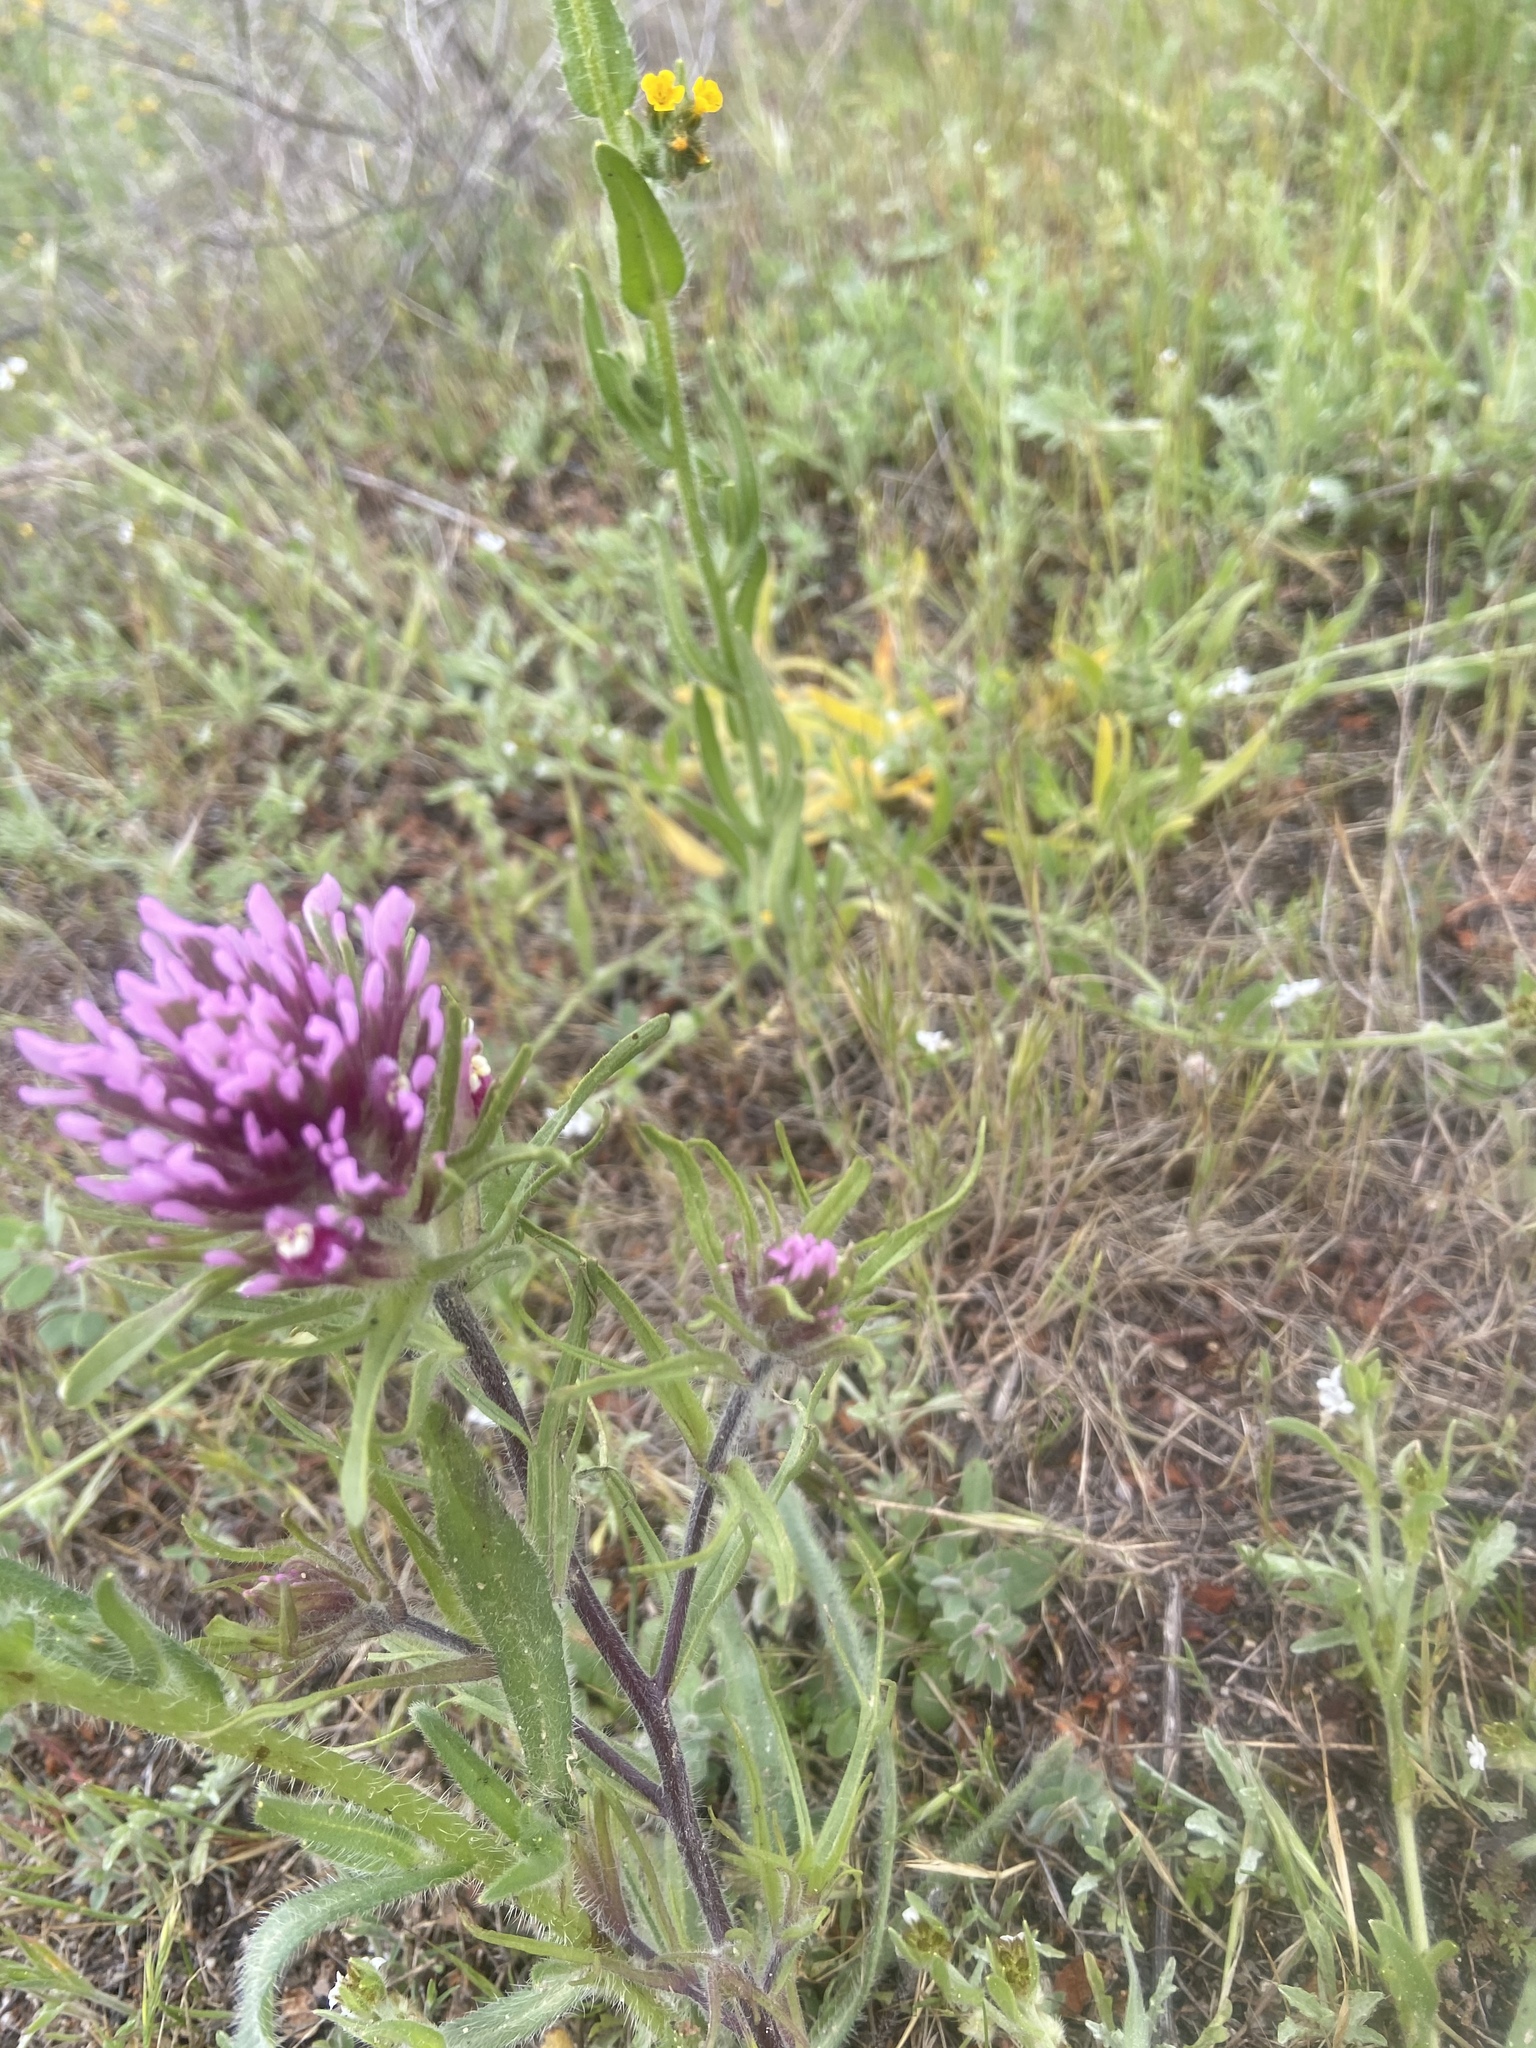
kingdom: Plantae
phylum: Tracheophyta
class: Magnoliopsida
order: Lamiales
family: Orobanchaceae
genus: Castilleja
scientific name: Castilleja exserta
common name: Purple owl-clover
